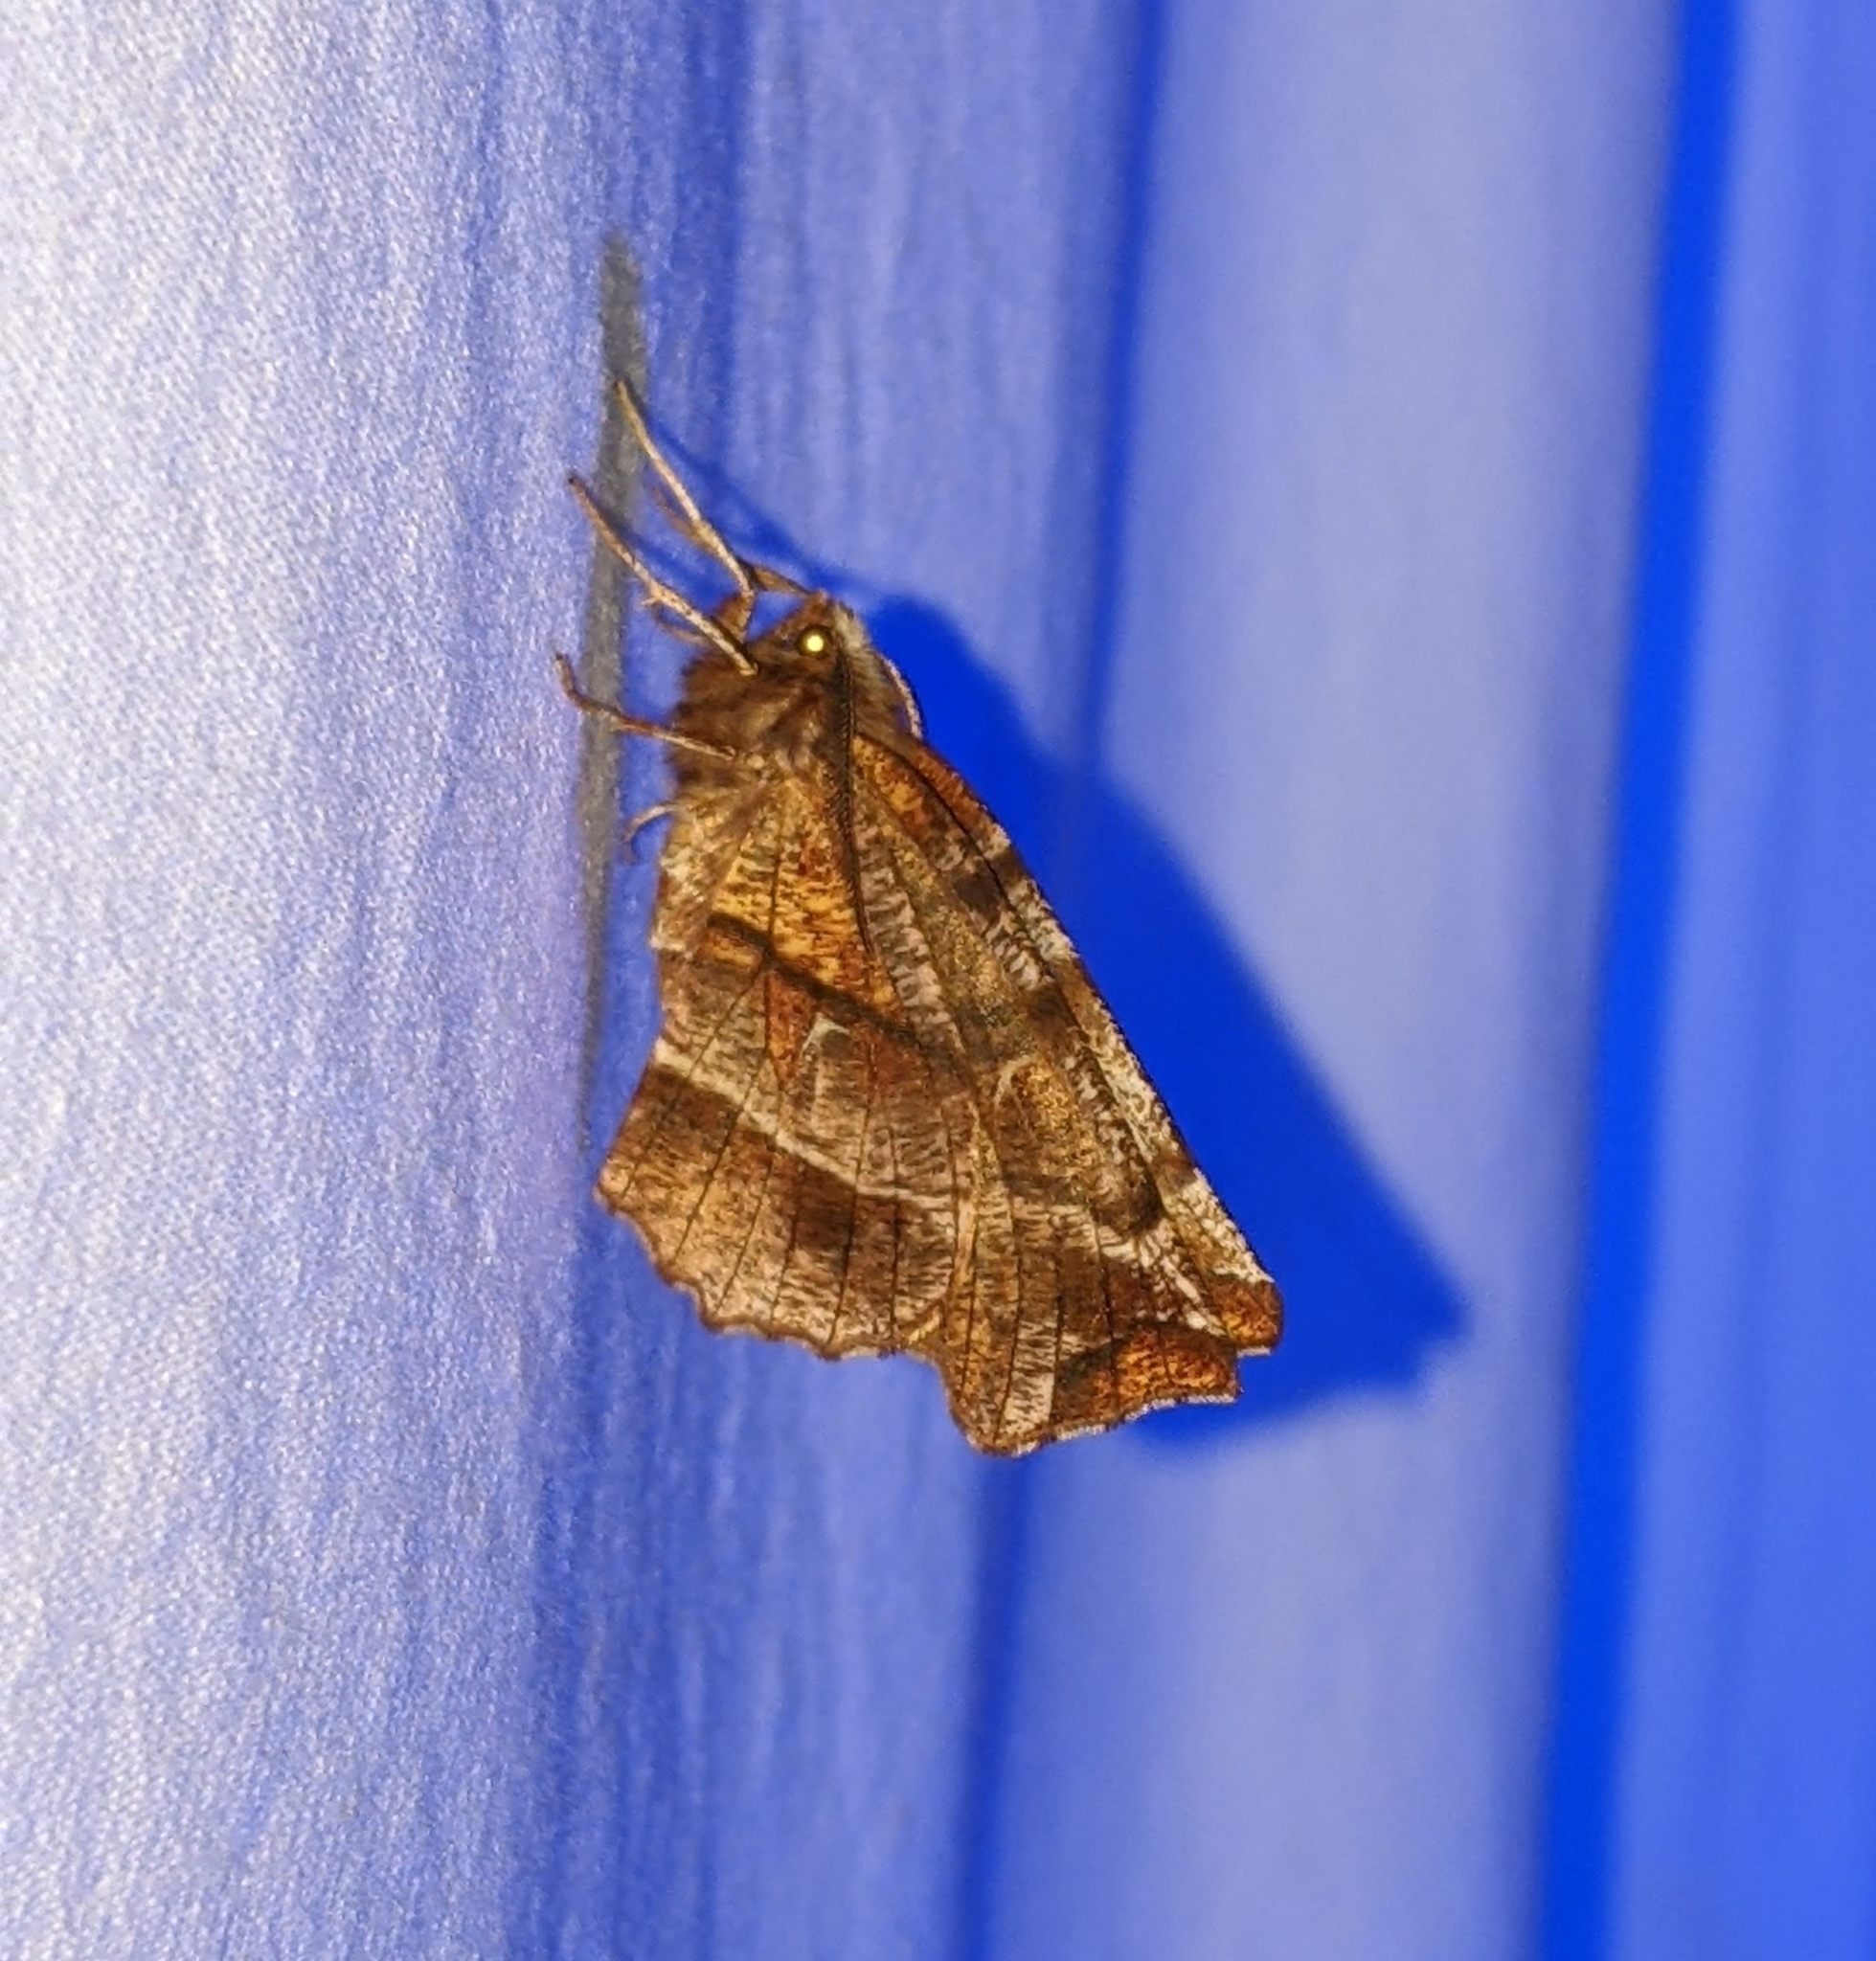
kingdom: Animalia
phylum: Arthropoda
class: Insecta
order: Lepidoptera
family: Geometridae
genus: Selenia
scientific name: Selenia alciphearia
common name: Brown-tipped thorn
